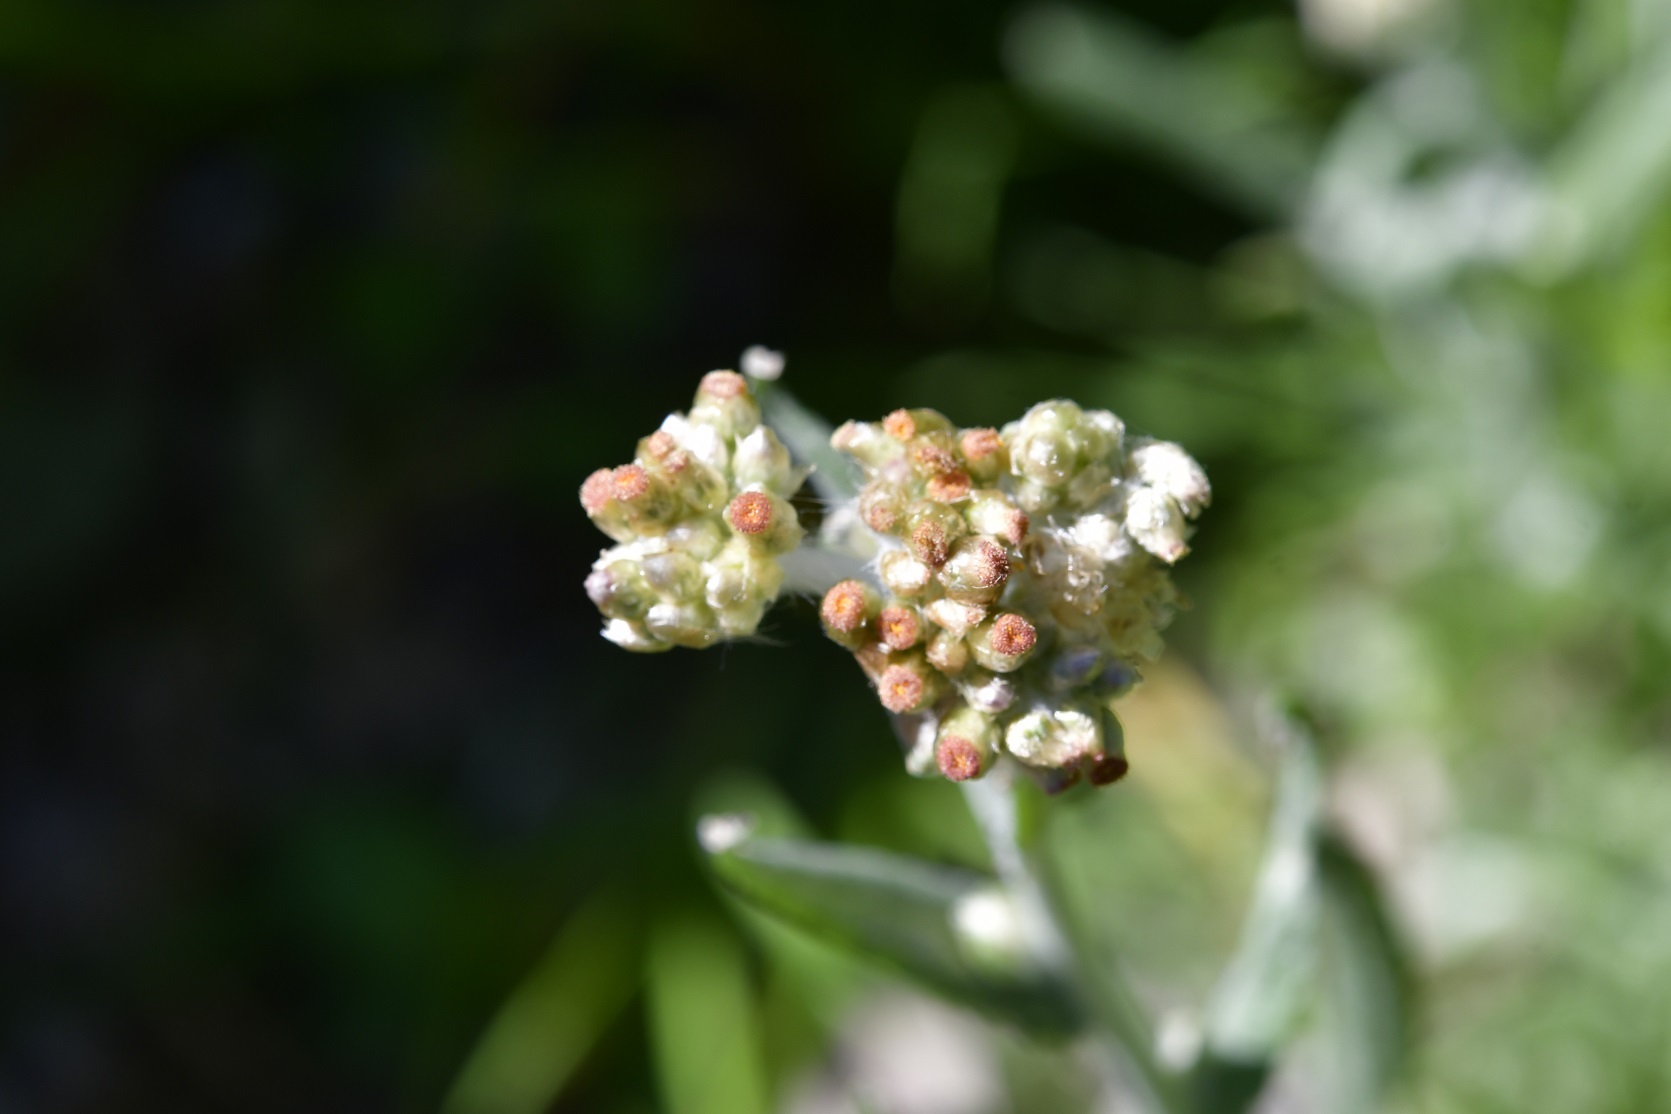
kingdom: Plantae
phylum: Tracheophyta
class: Magnoliopsida
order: Asterales
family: Asteraceae
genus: Pseudognaphalium
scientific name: Pseudognaphalium chartaceum
